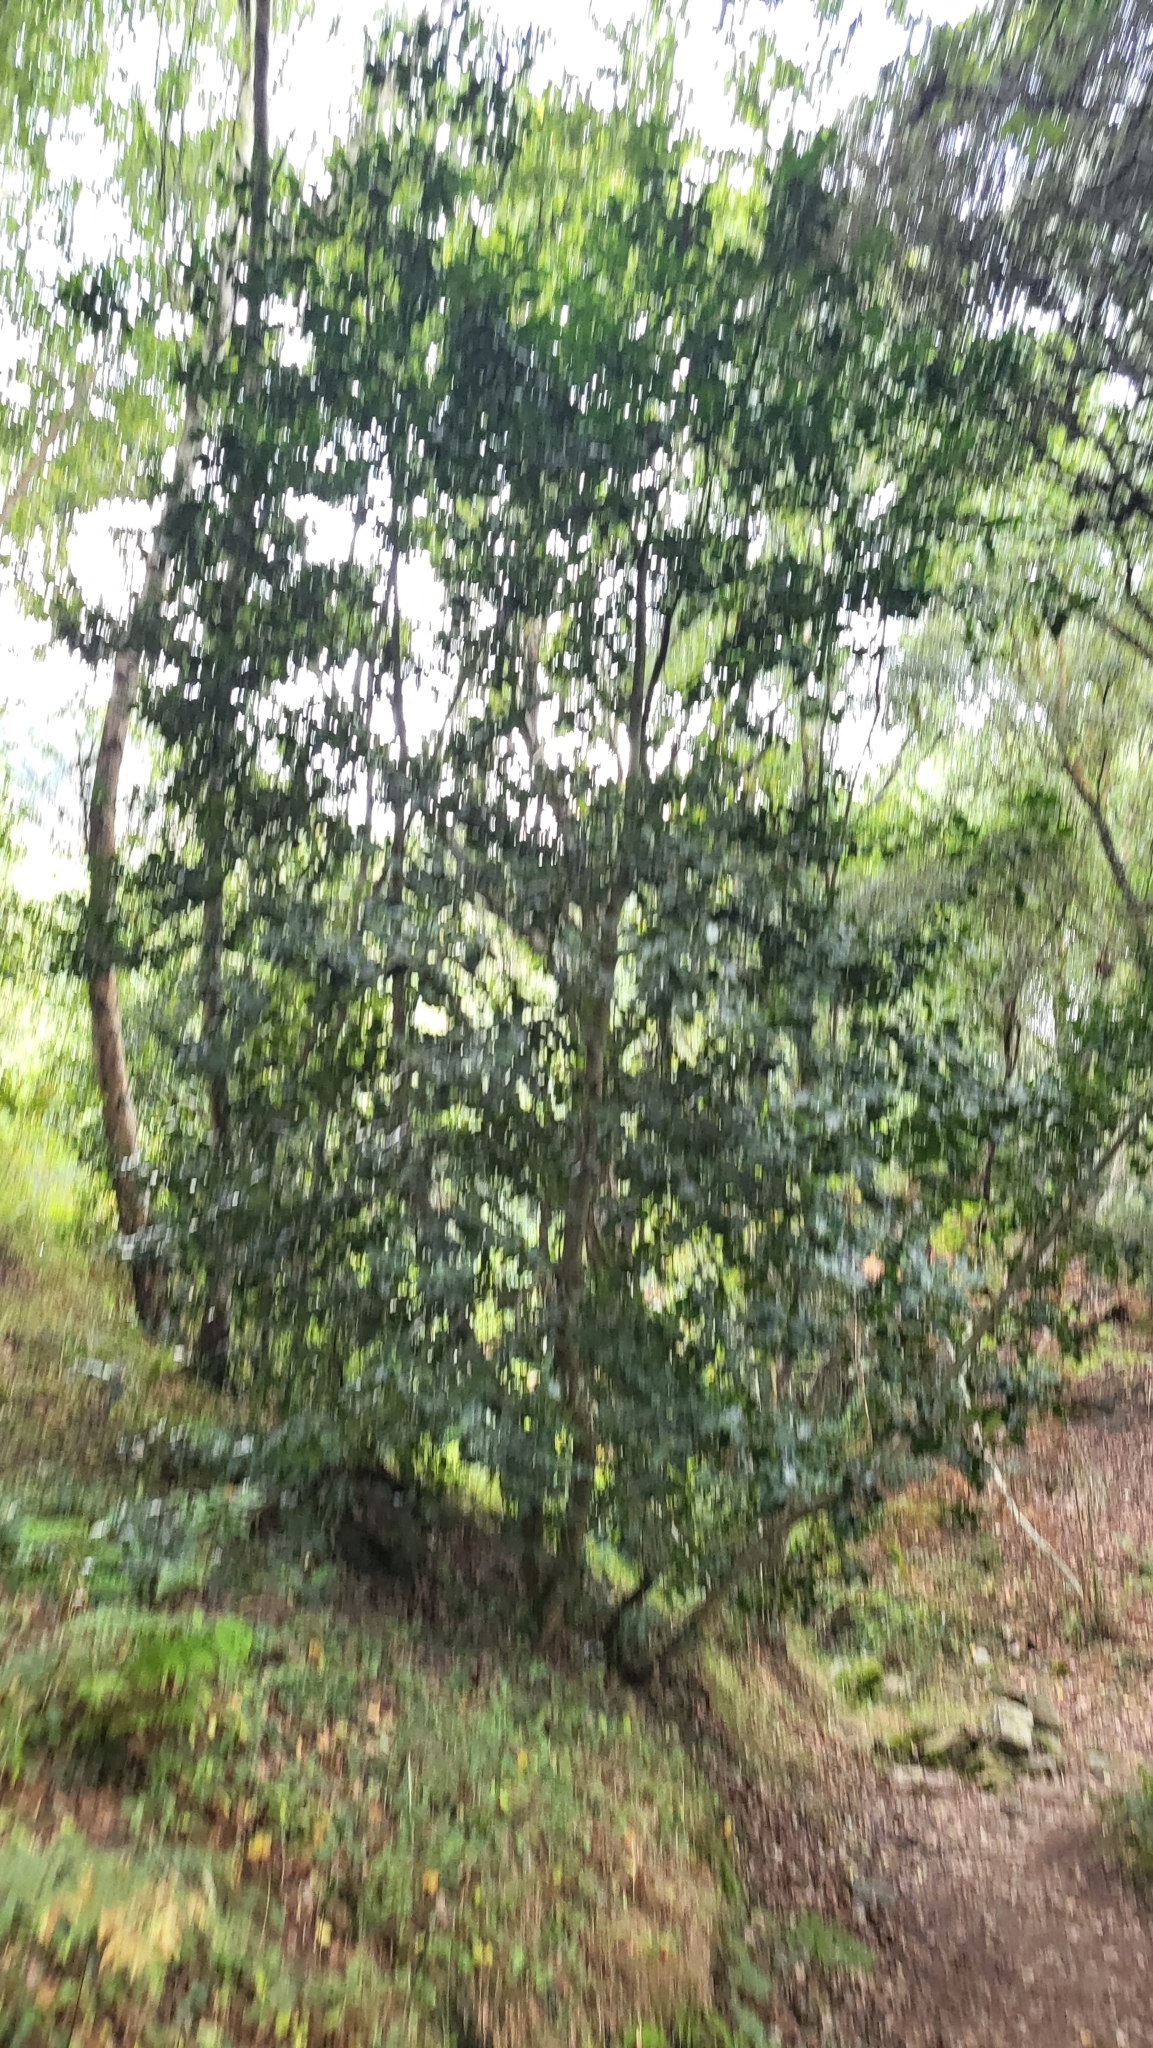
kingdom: Plantae
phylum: Tracheophyta
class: Magnoliopsida
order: Aquifoliales
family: Aquifoliaceae
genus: Ilex
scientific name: Ilex aquifolium
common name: English holly
